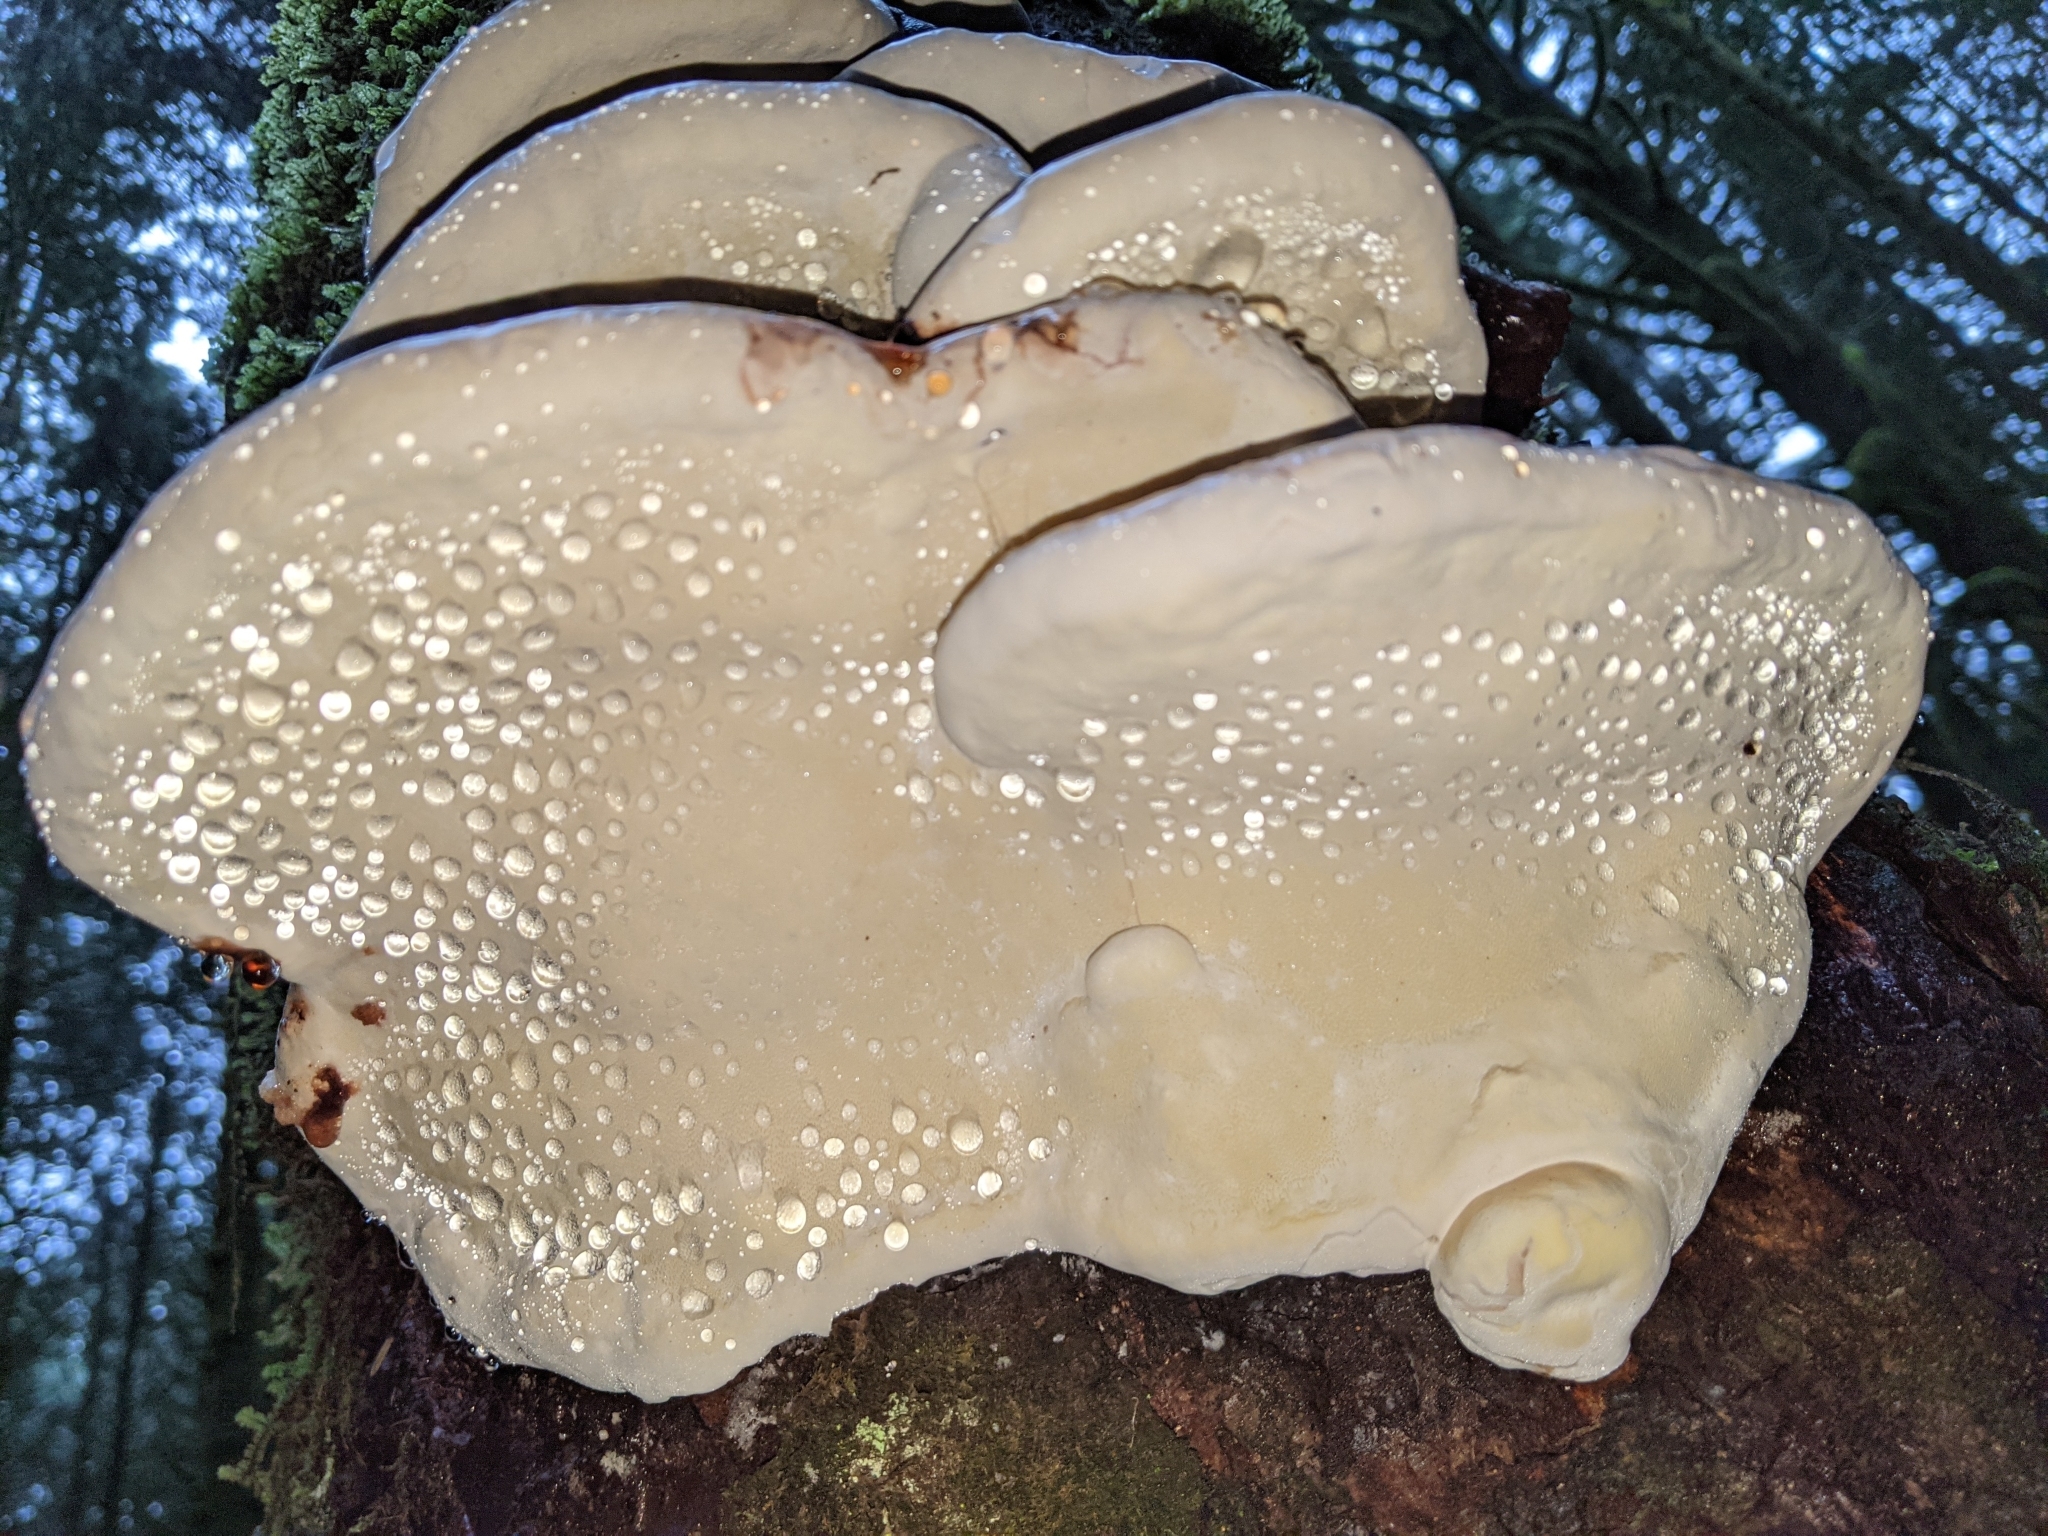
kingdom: Fungi
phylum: Basidiomycota
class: Agaricomycetes
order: Polyporales
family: Fomitopsidaceae
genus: Fomitopsis
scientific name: Fomitopsis mounceae
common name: Northern red belt
